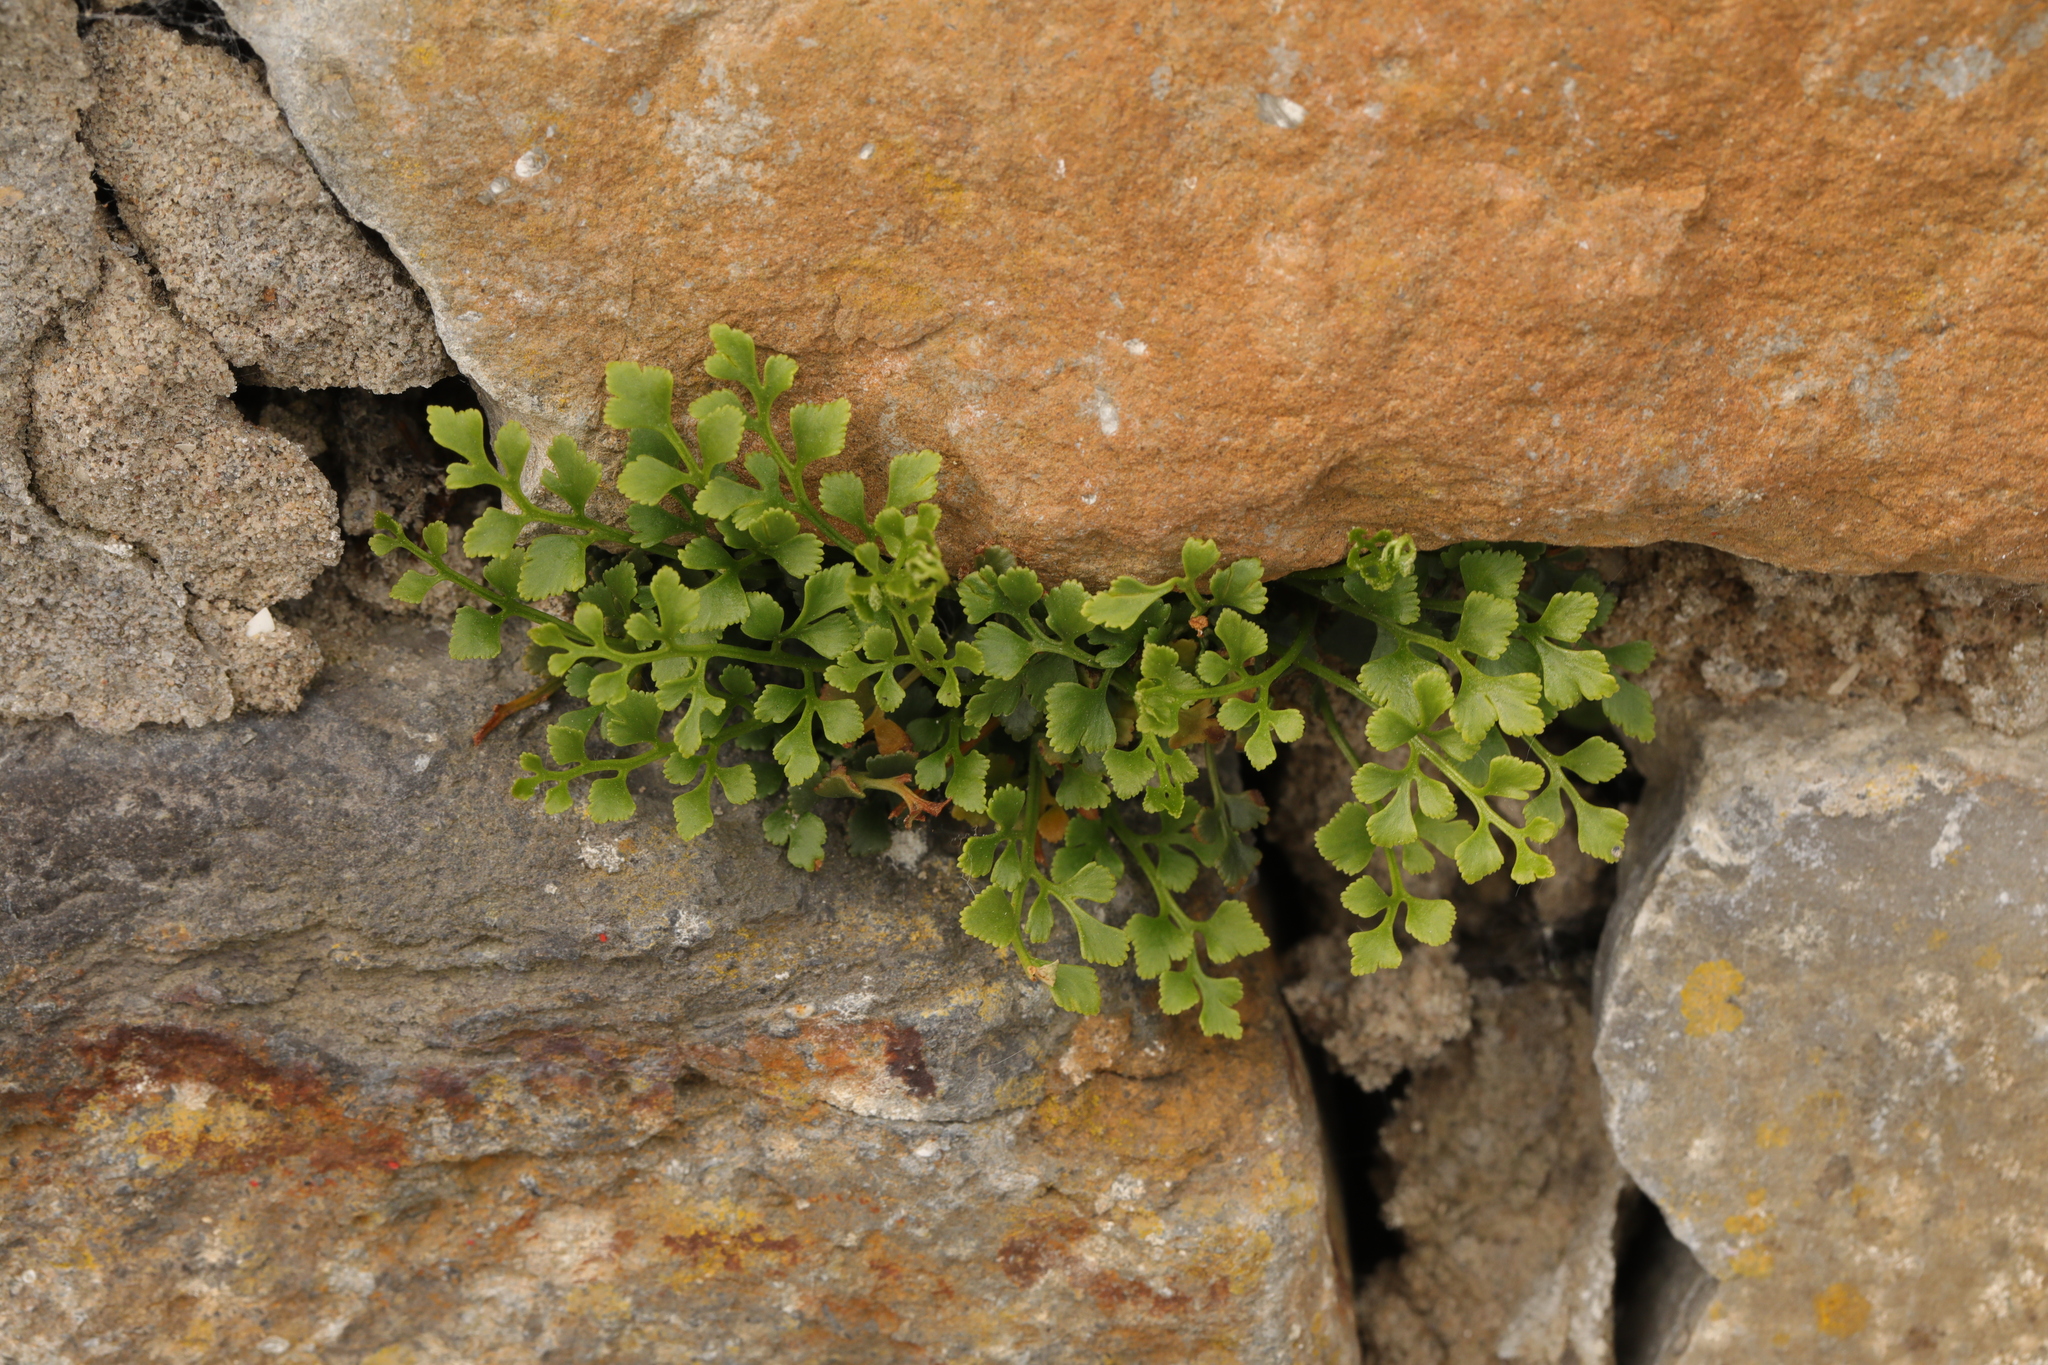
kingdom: Plantae
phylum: Tracheophyta
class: Polypodiopsida
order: Polypodiales
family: Aspleniaceae
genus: Asplenium
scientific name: Asplenium ruta-muraria
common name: Wall-rue
